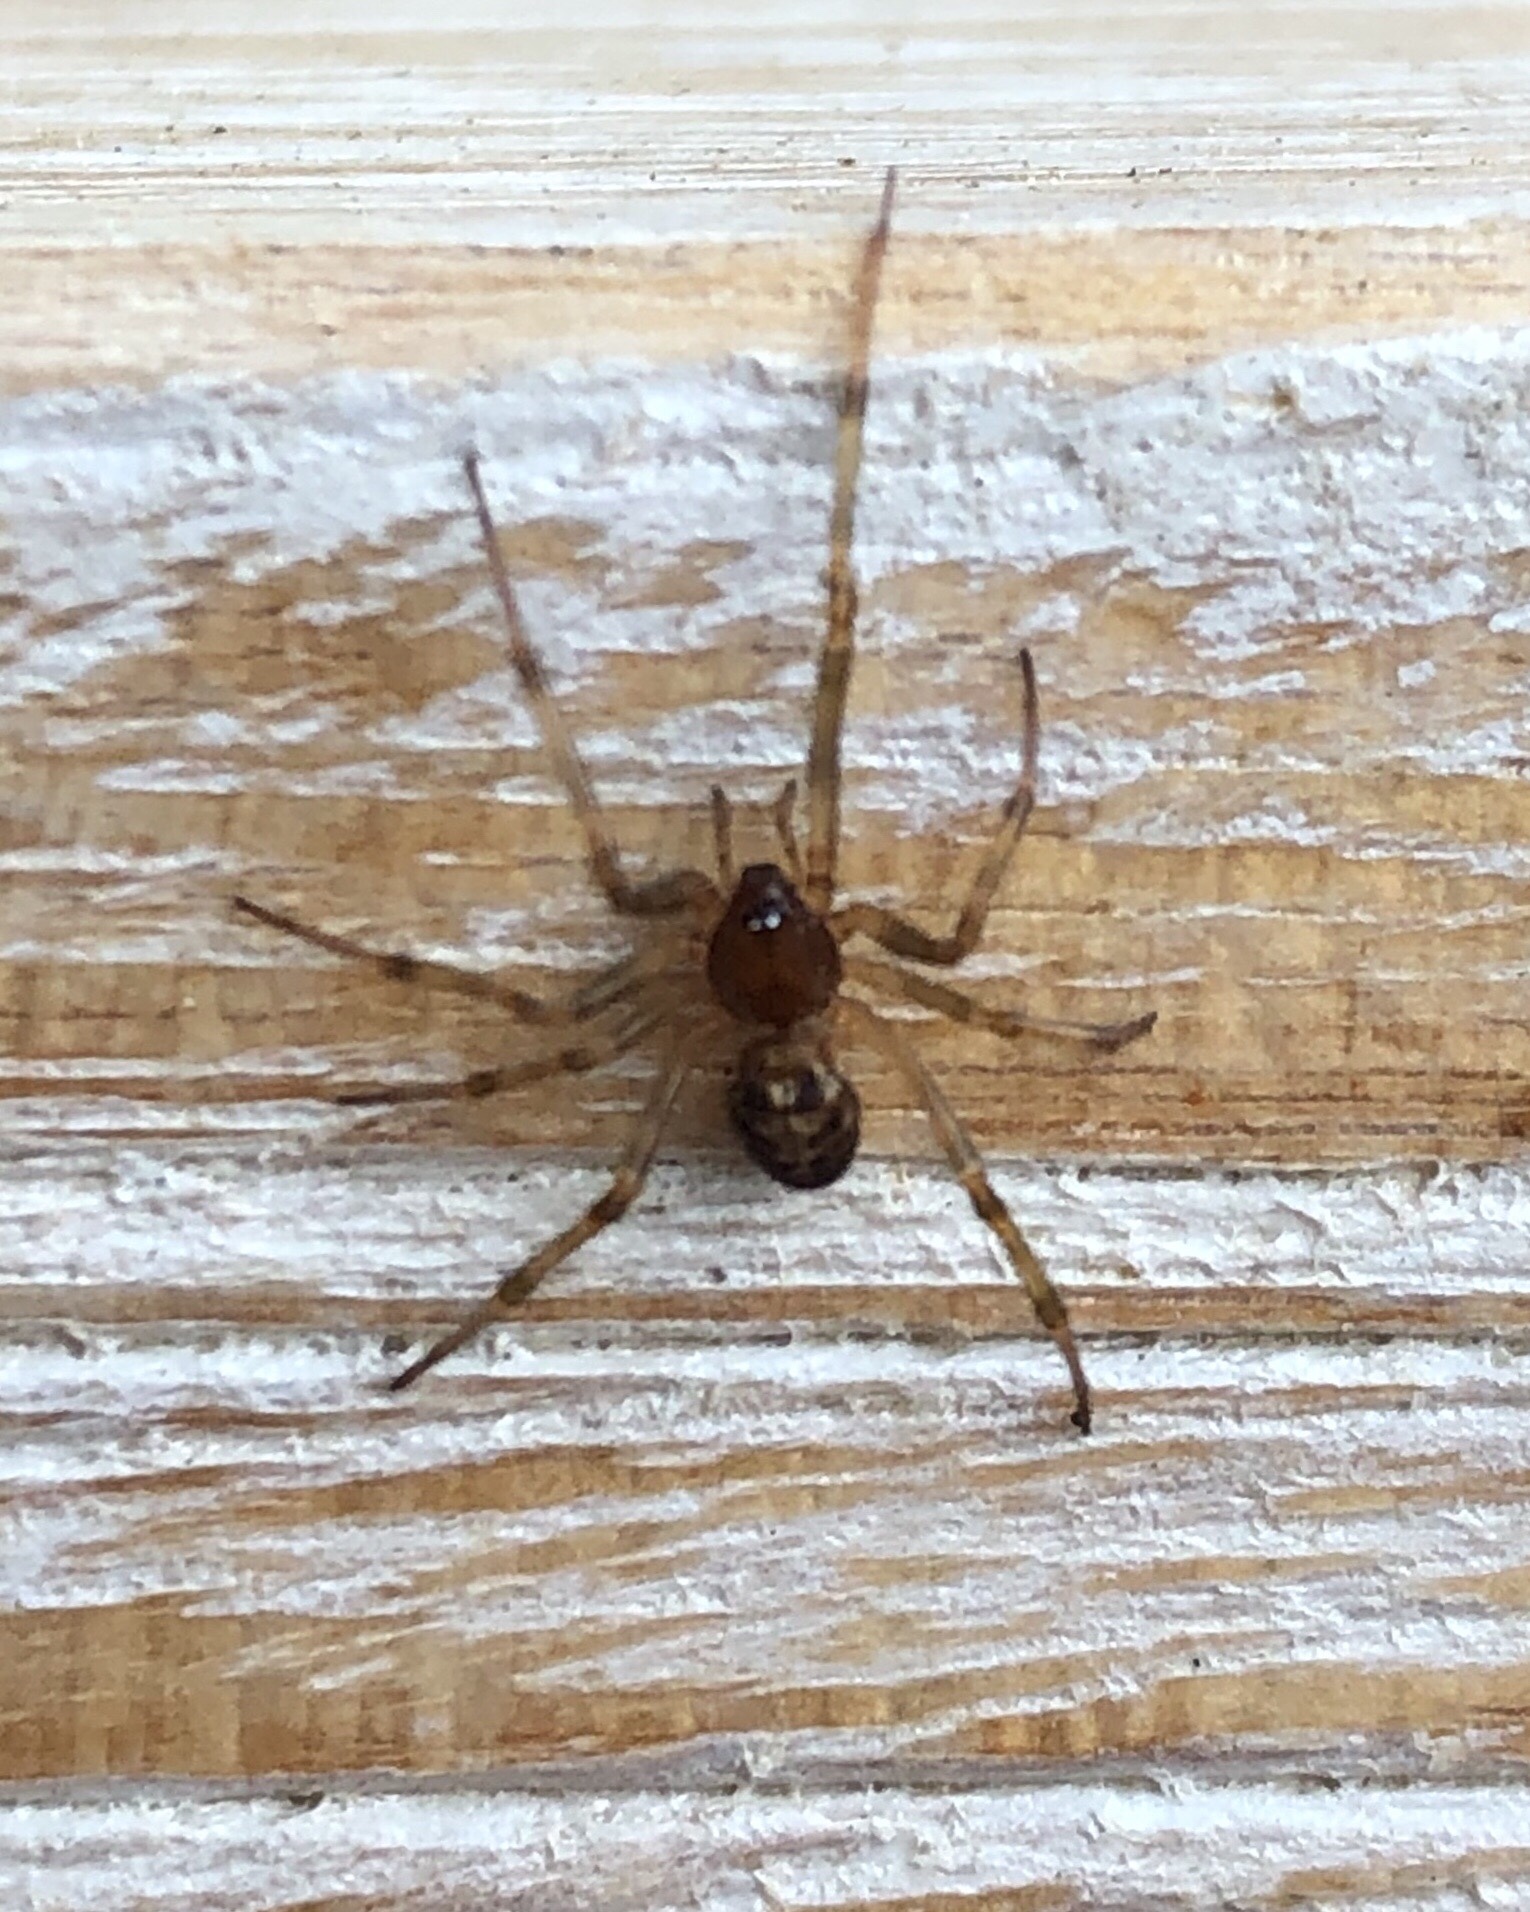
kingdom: Animalia
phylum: Arthropoda
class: Arachnida
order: Araneae
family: Theridiidae
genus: Steatoda
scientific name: Steatoda triangulosa
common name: Triangulate bud spider
